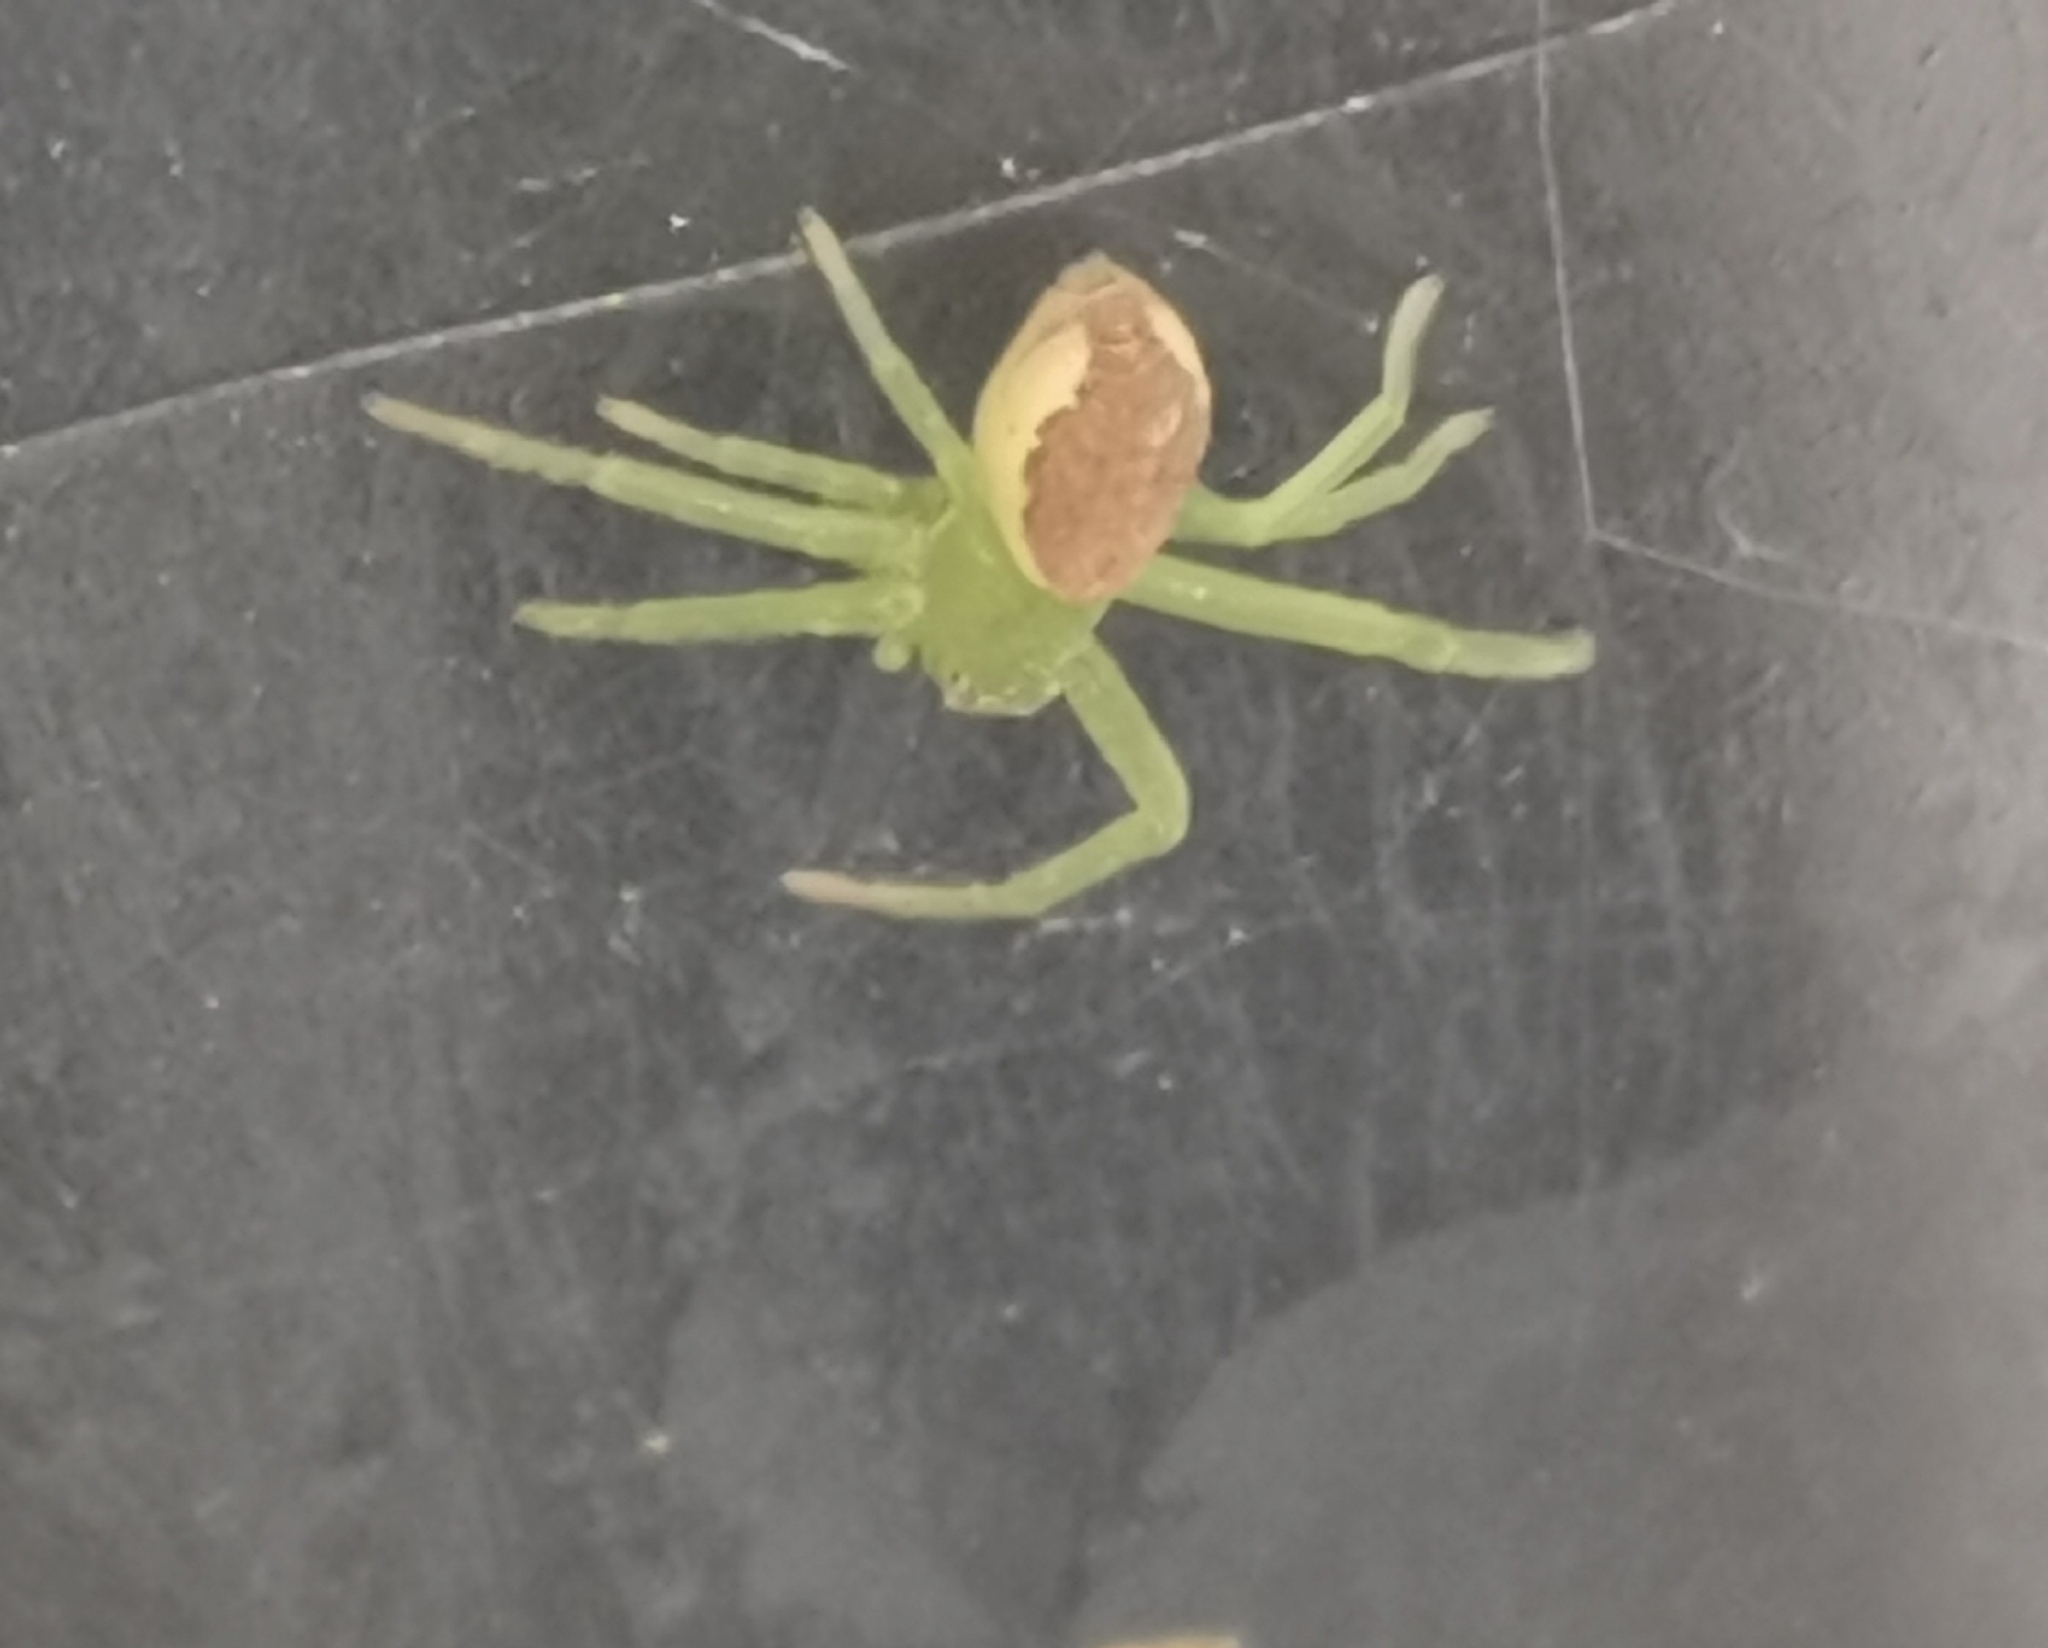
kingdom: Animalia
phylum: Arthropoda
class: Arachnida
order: Araneae
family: Thomisidae
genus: Diaea
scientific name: Diaea dorsata
